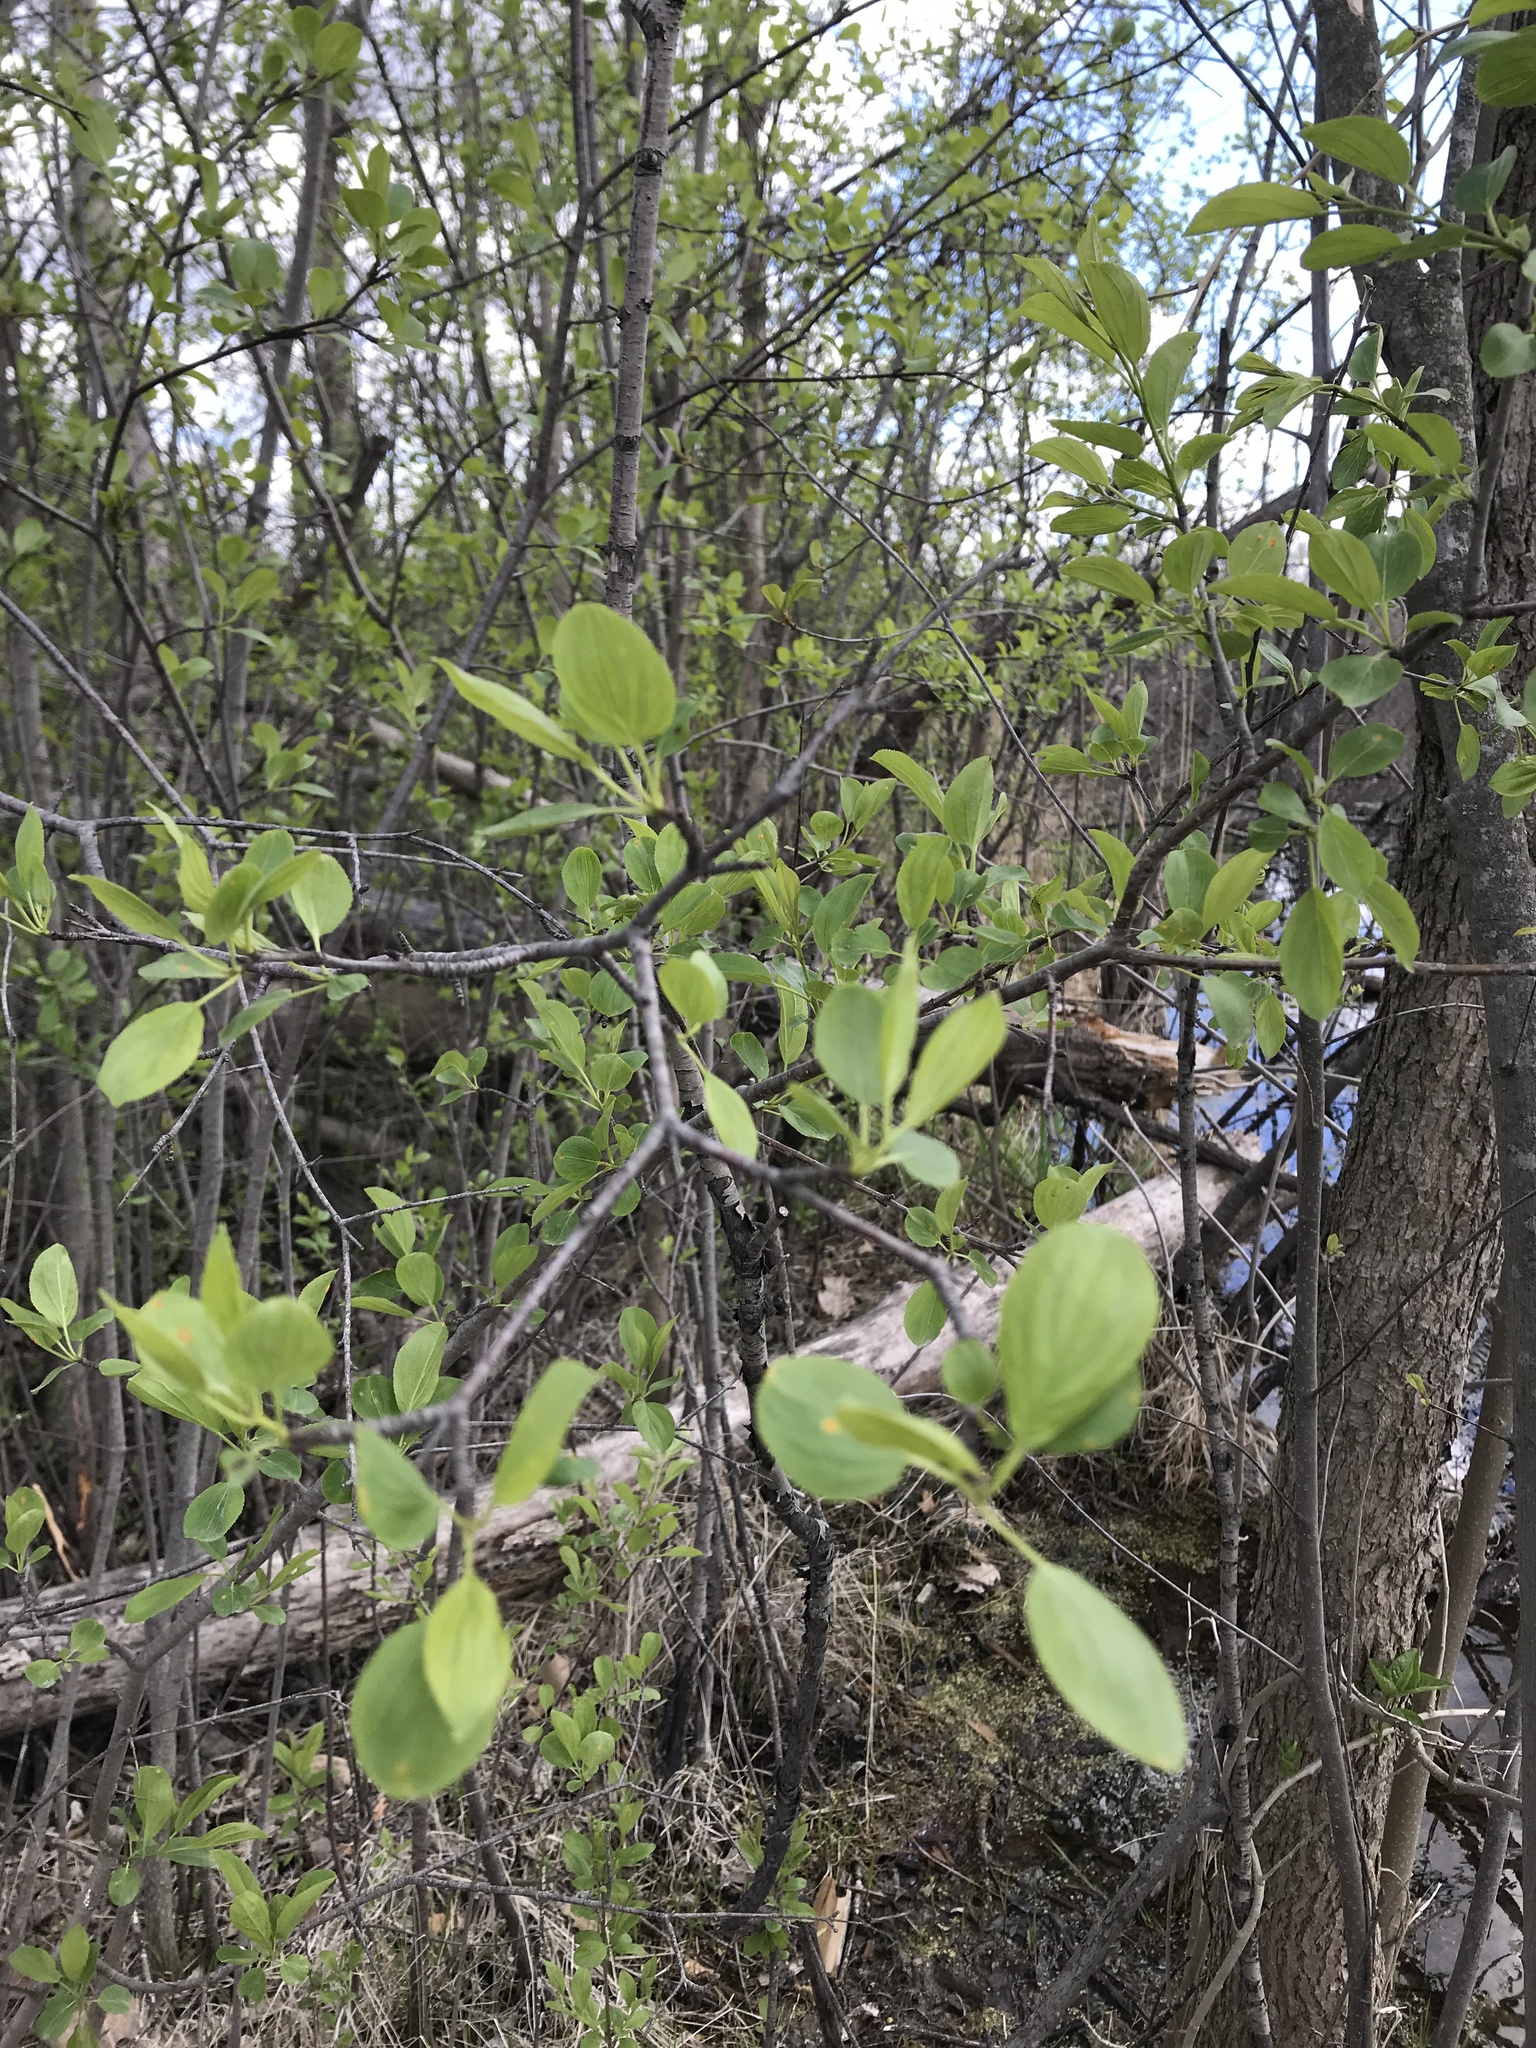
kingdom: Plantae
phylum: Tracheophyta
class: Magnoliopsida
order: Rosales
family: Rhamnaceae
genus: Rhamnus
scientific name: Rhamnus cathartica
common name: Common buckthorn
